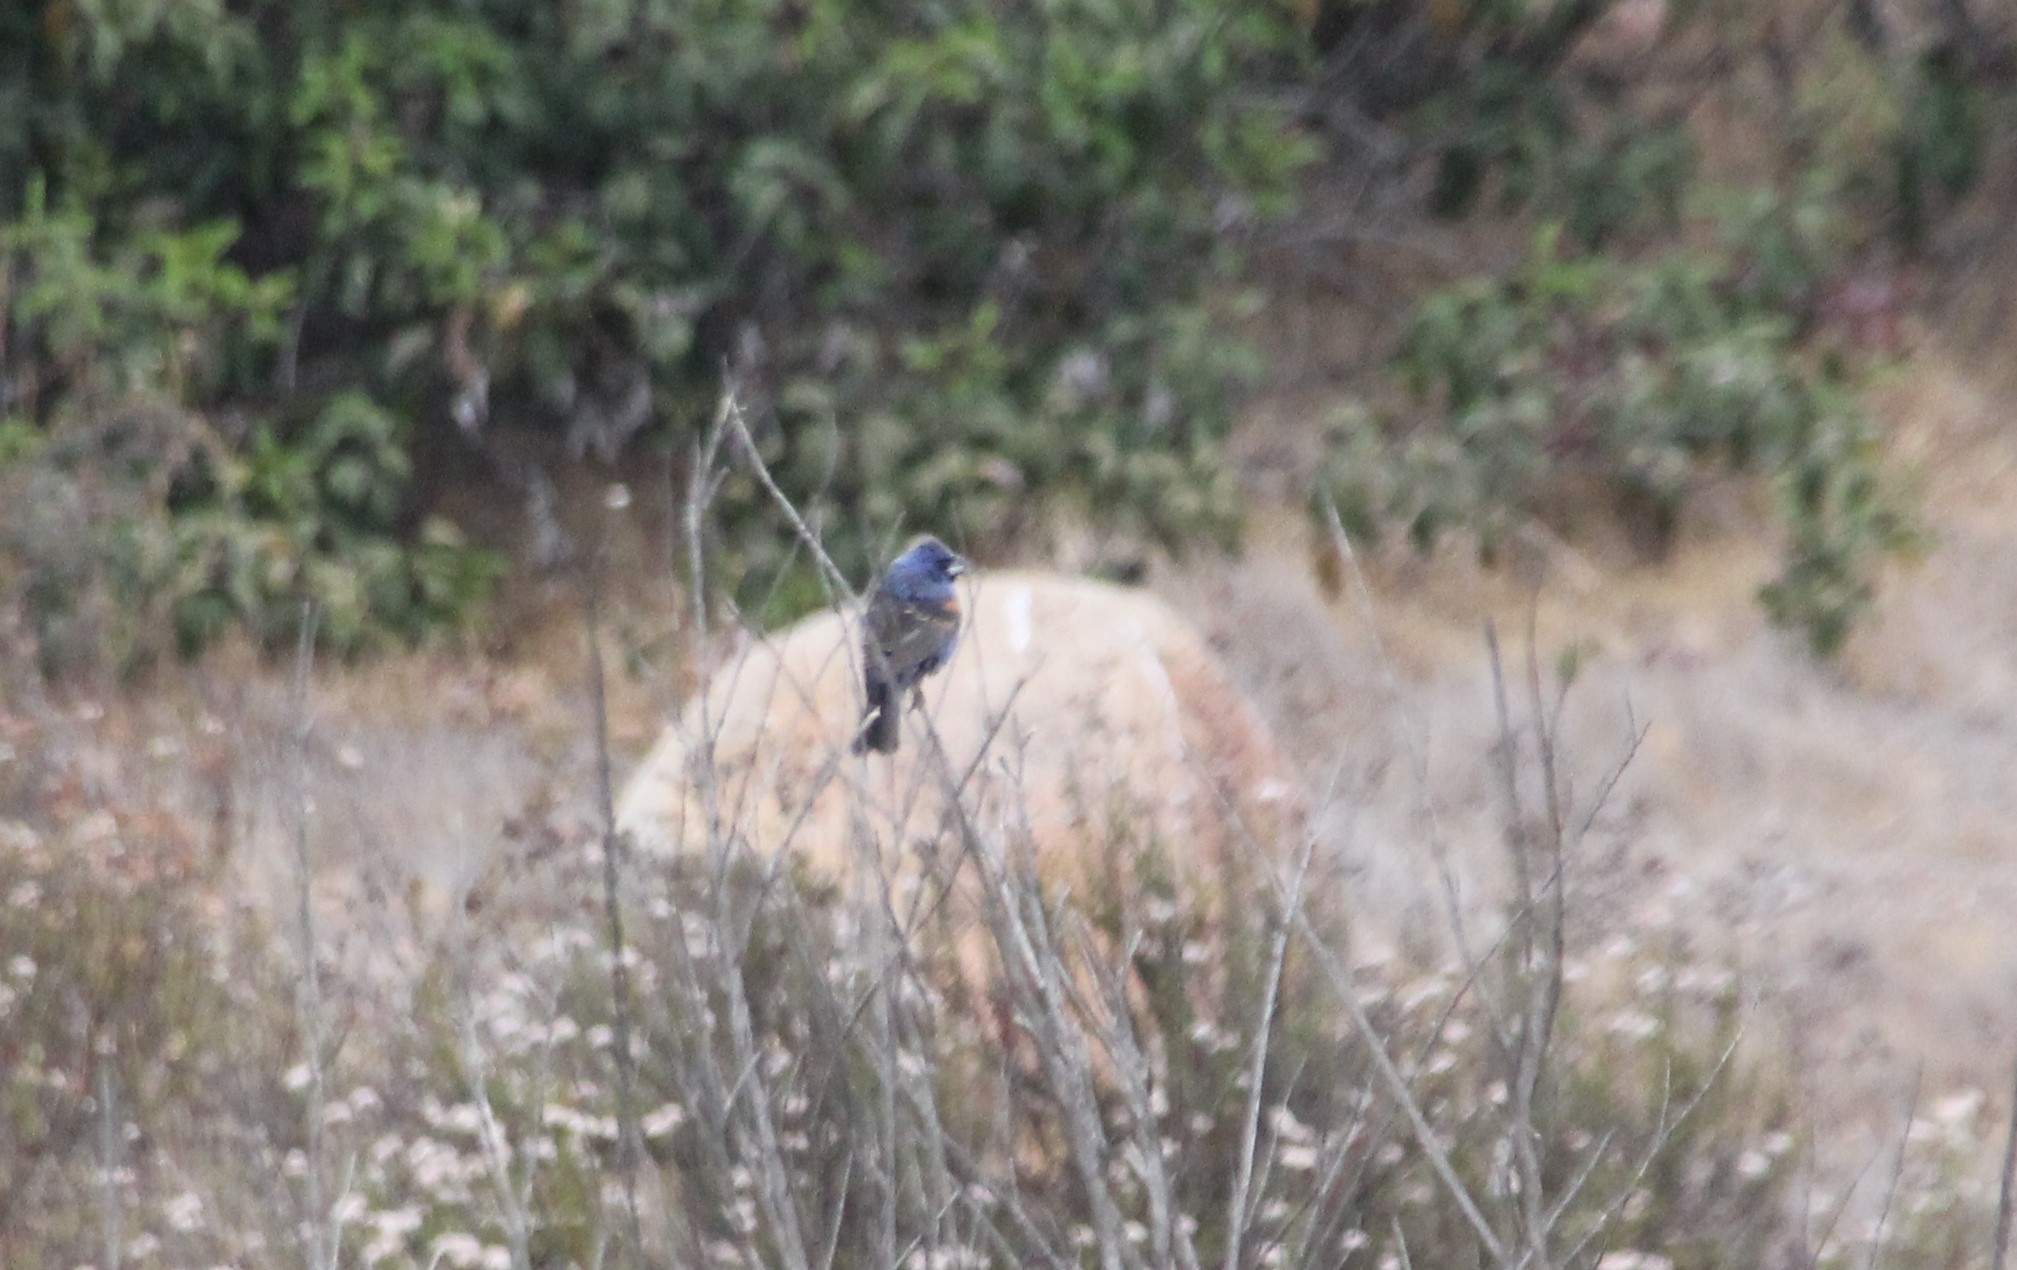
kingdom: Animalia
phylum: Chordata
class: Aves
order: Passeriformes
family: Cardinalidae
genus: Passerina
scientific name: Passerina caerulea
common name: Blue grosbeak
